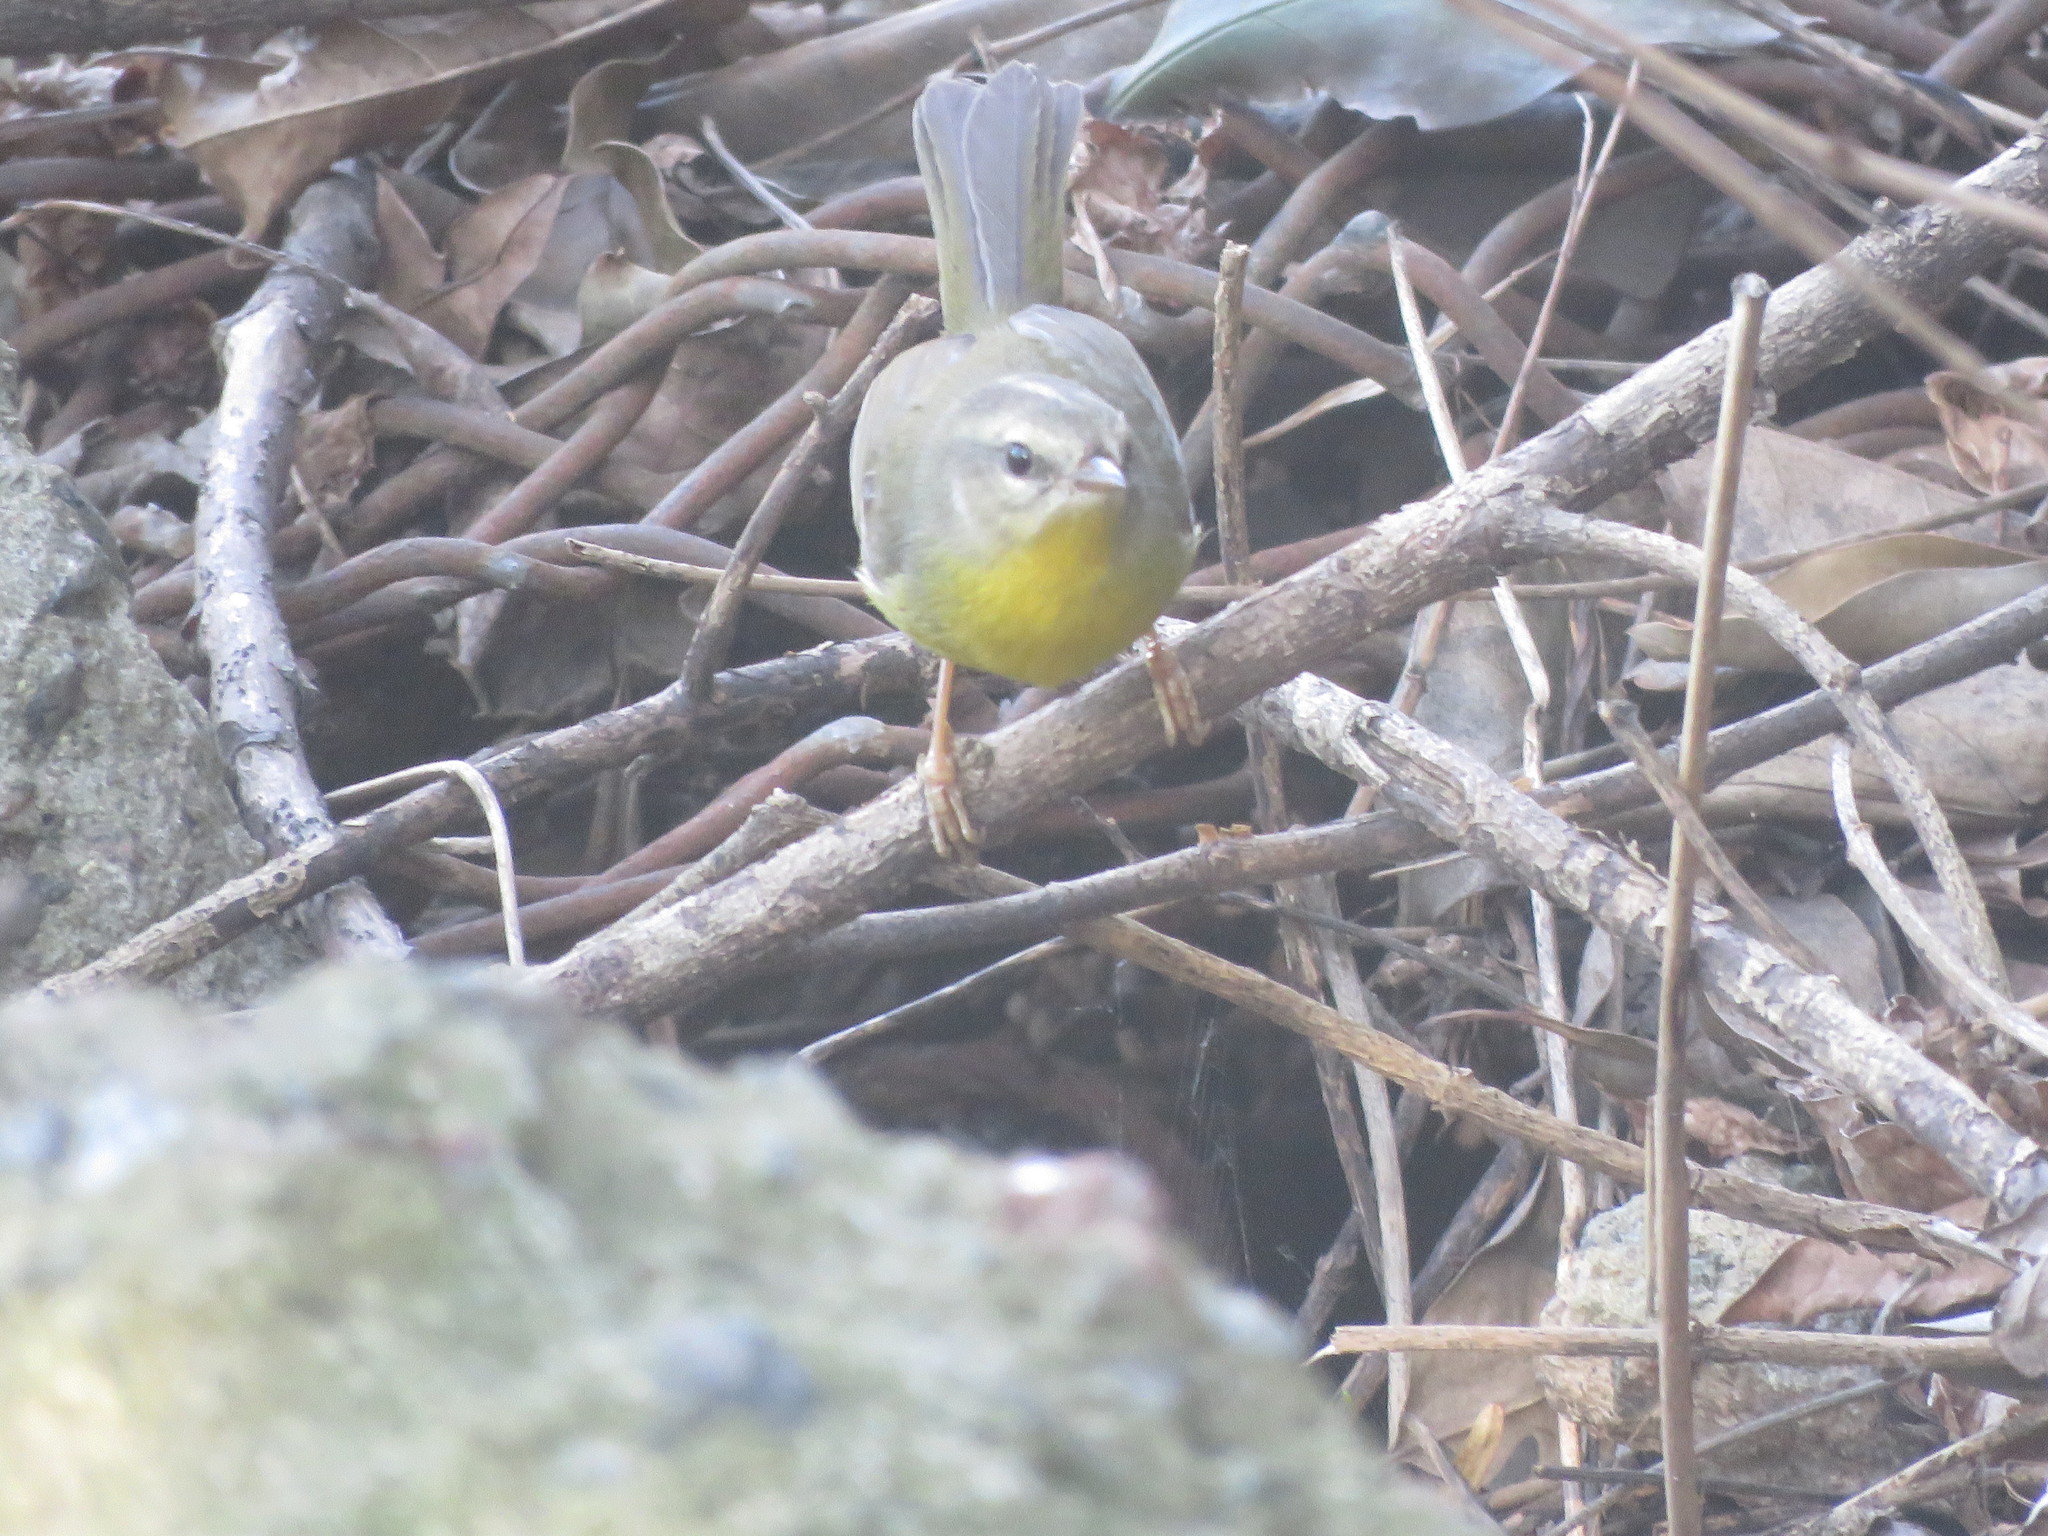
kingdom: Animalia
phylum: Chordata
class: Aves
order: Passeriformes
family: Parulidae
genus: Basileuterus
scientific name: Basileuterus culicivorus
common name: Golden-crowned warbler
